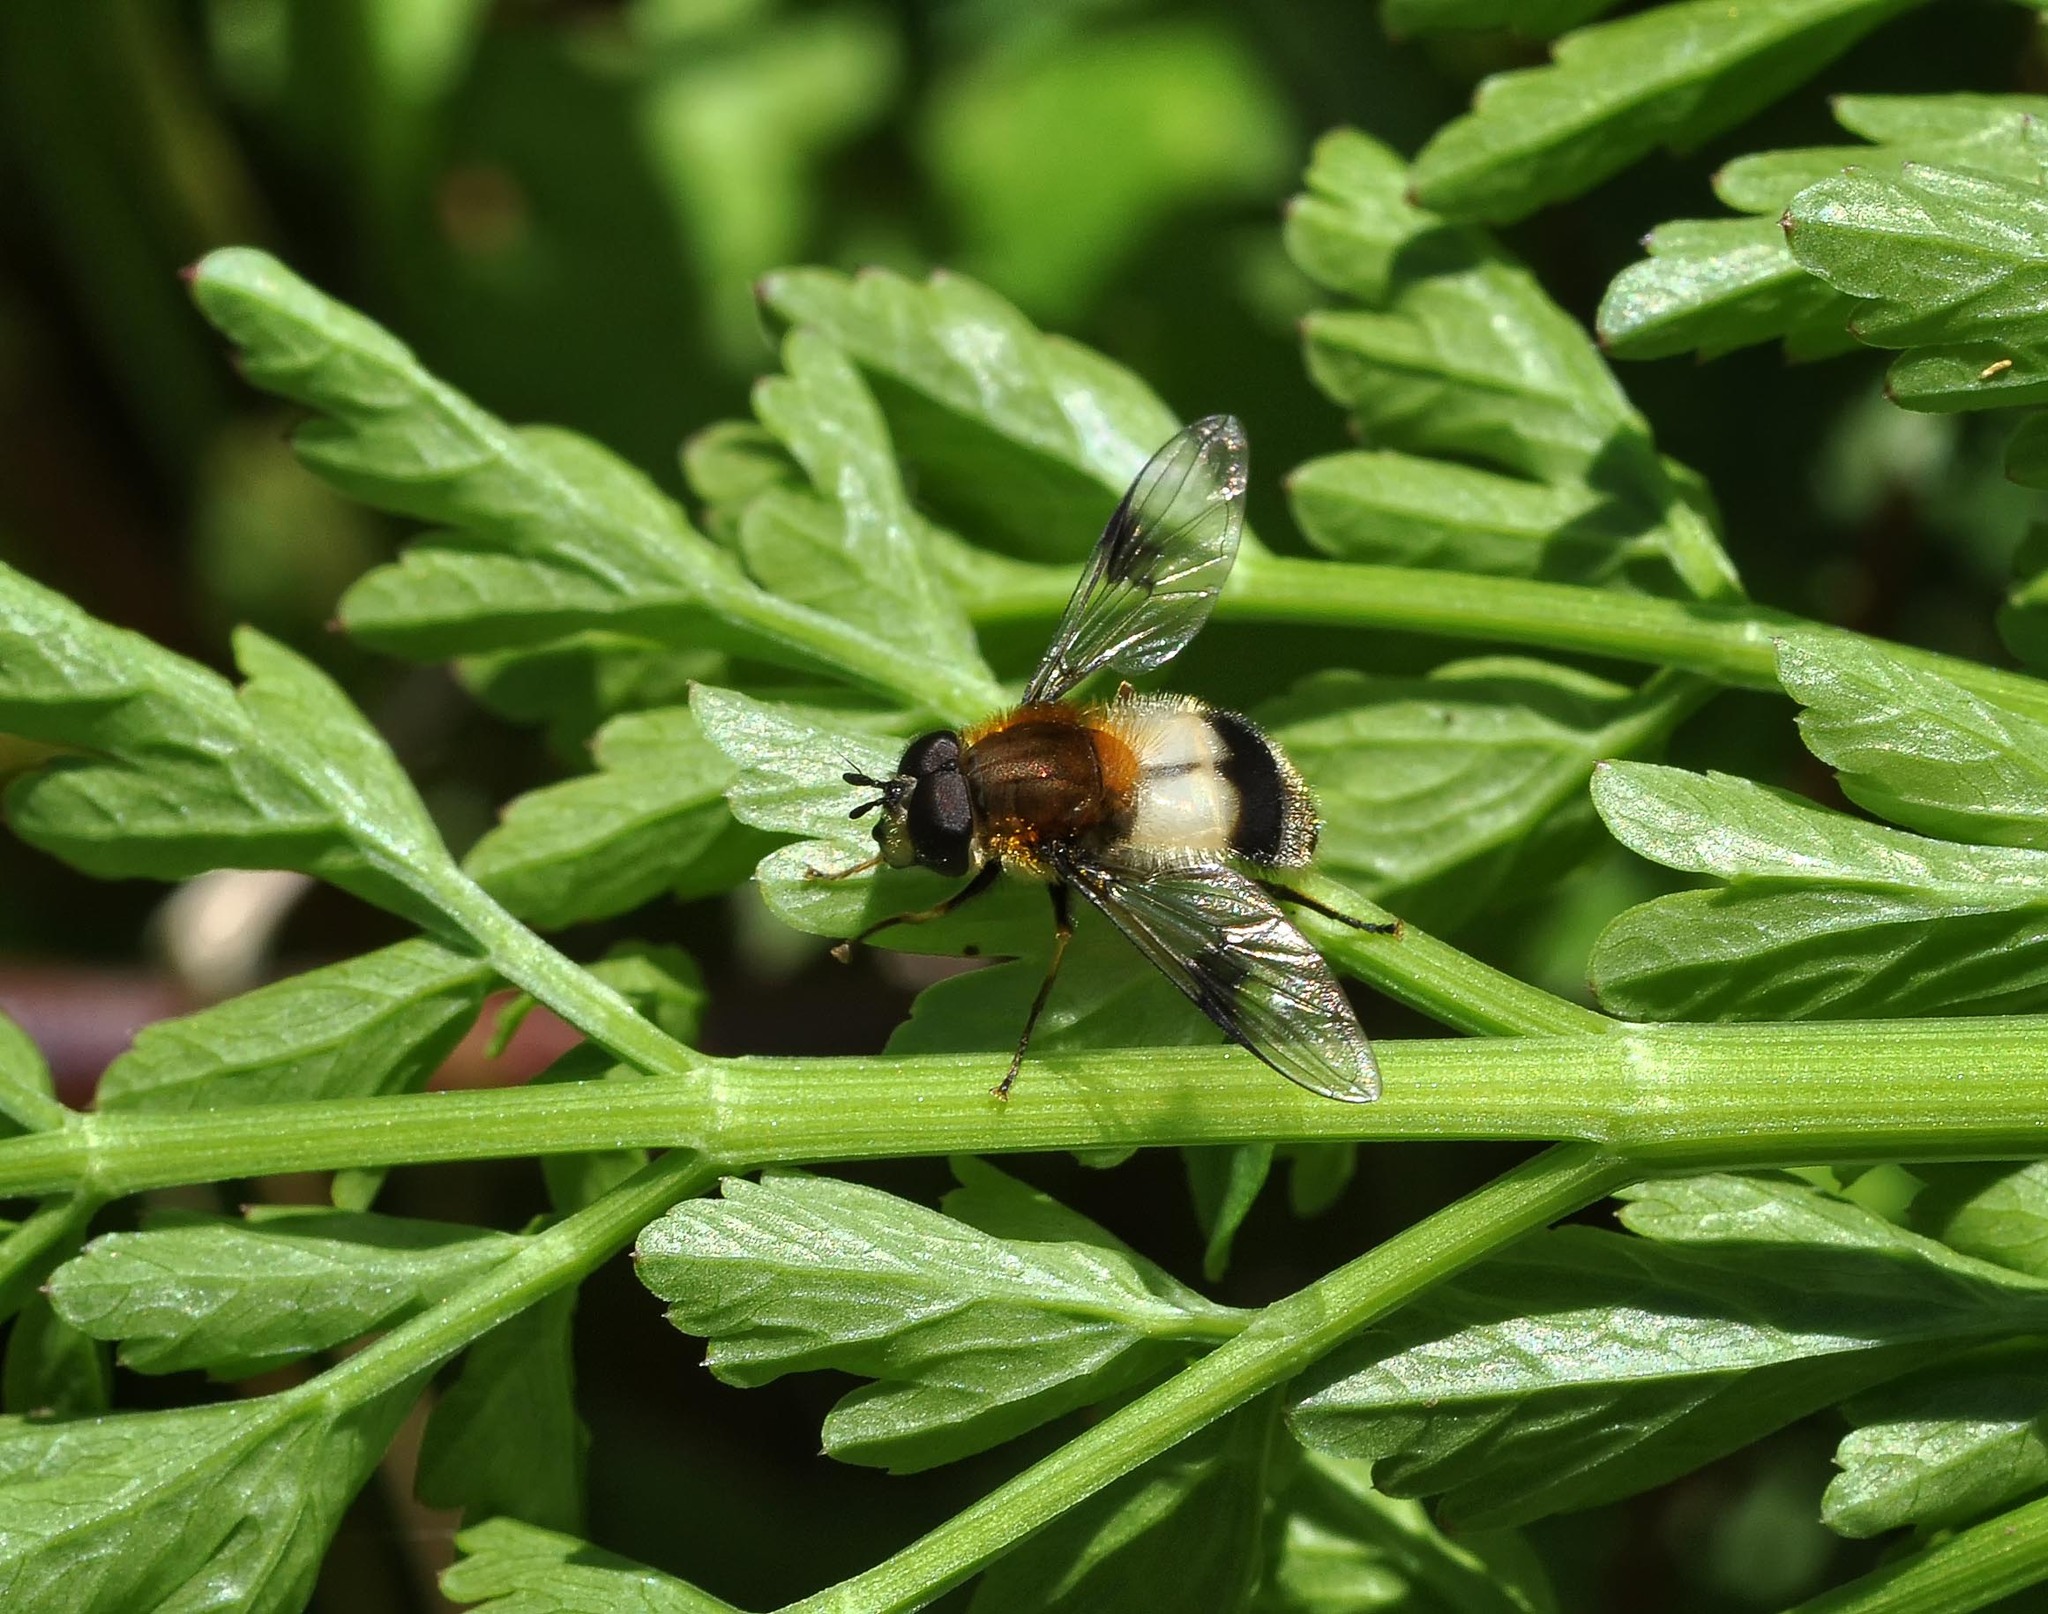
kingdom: Animalia
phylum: Arthropoda
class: Insecta
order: Diptera
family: Syrphidae
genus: Leucozona
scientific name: Leucozona lucorum
